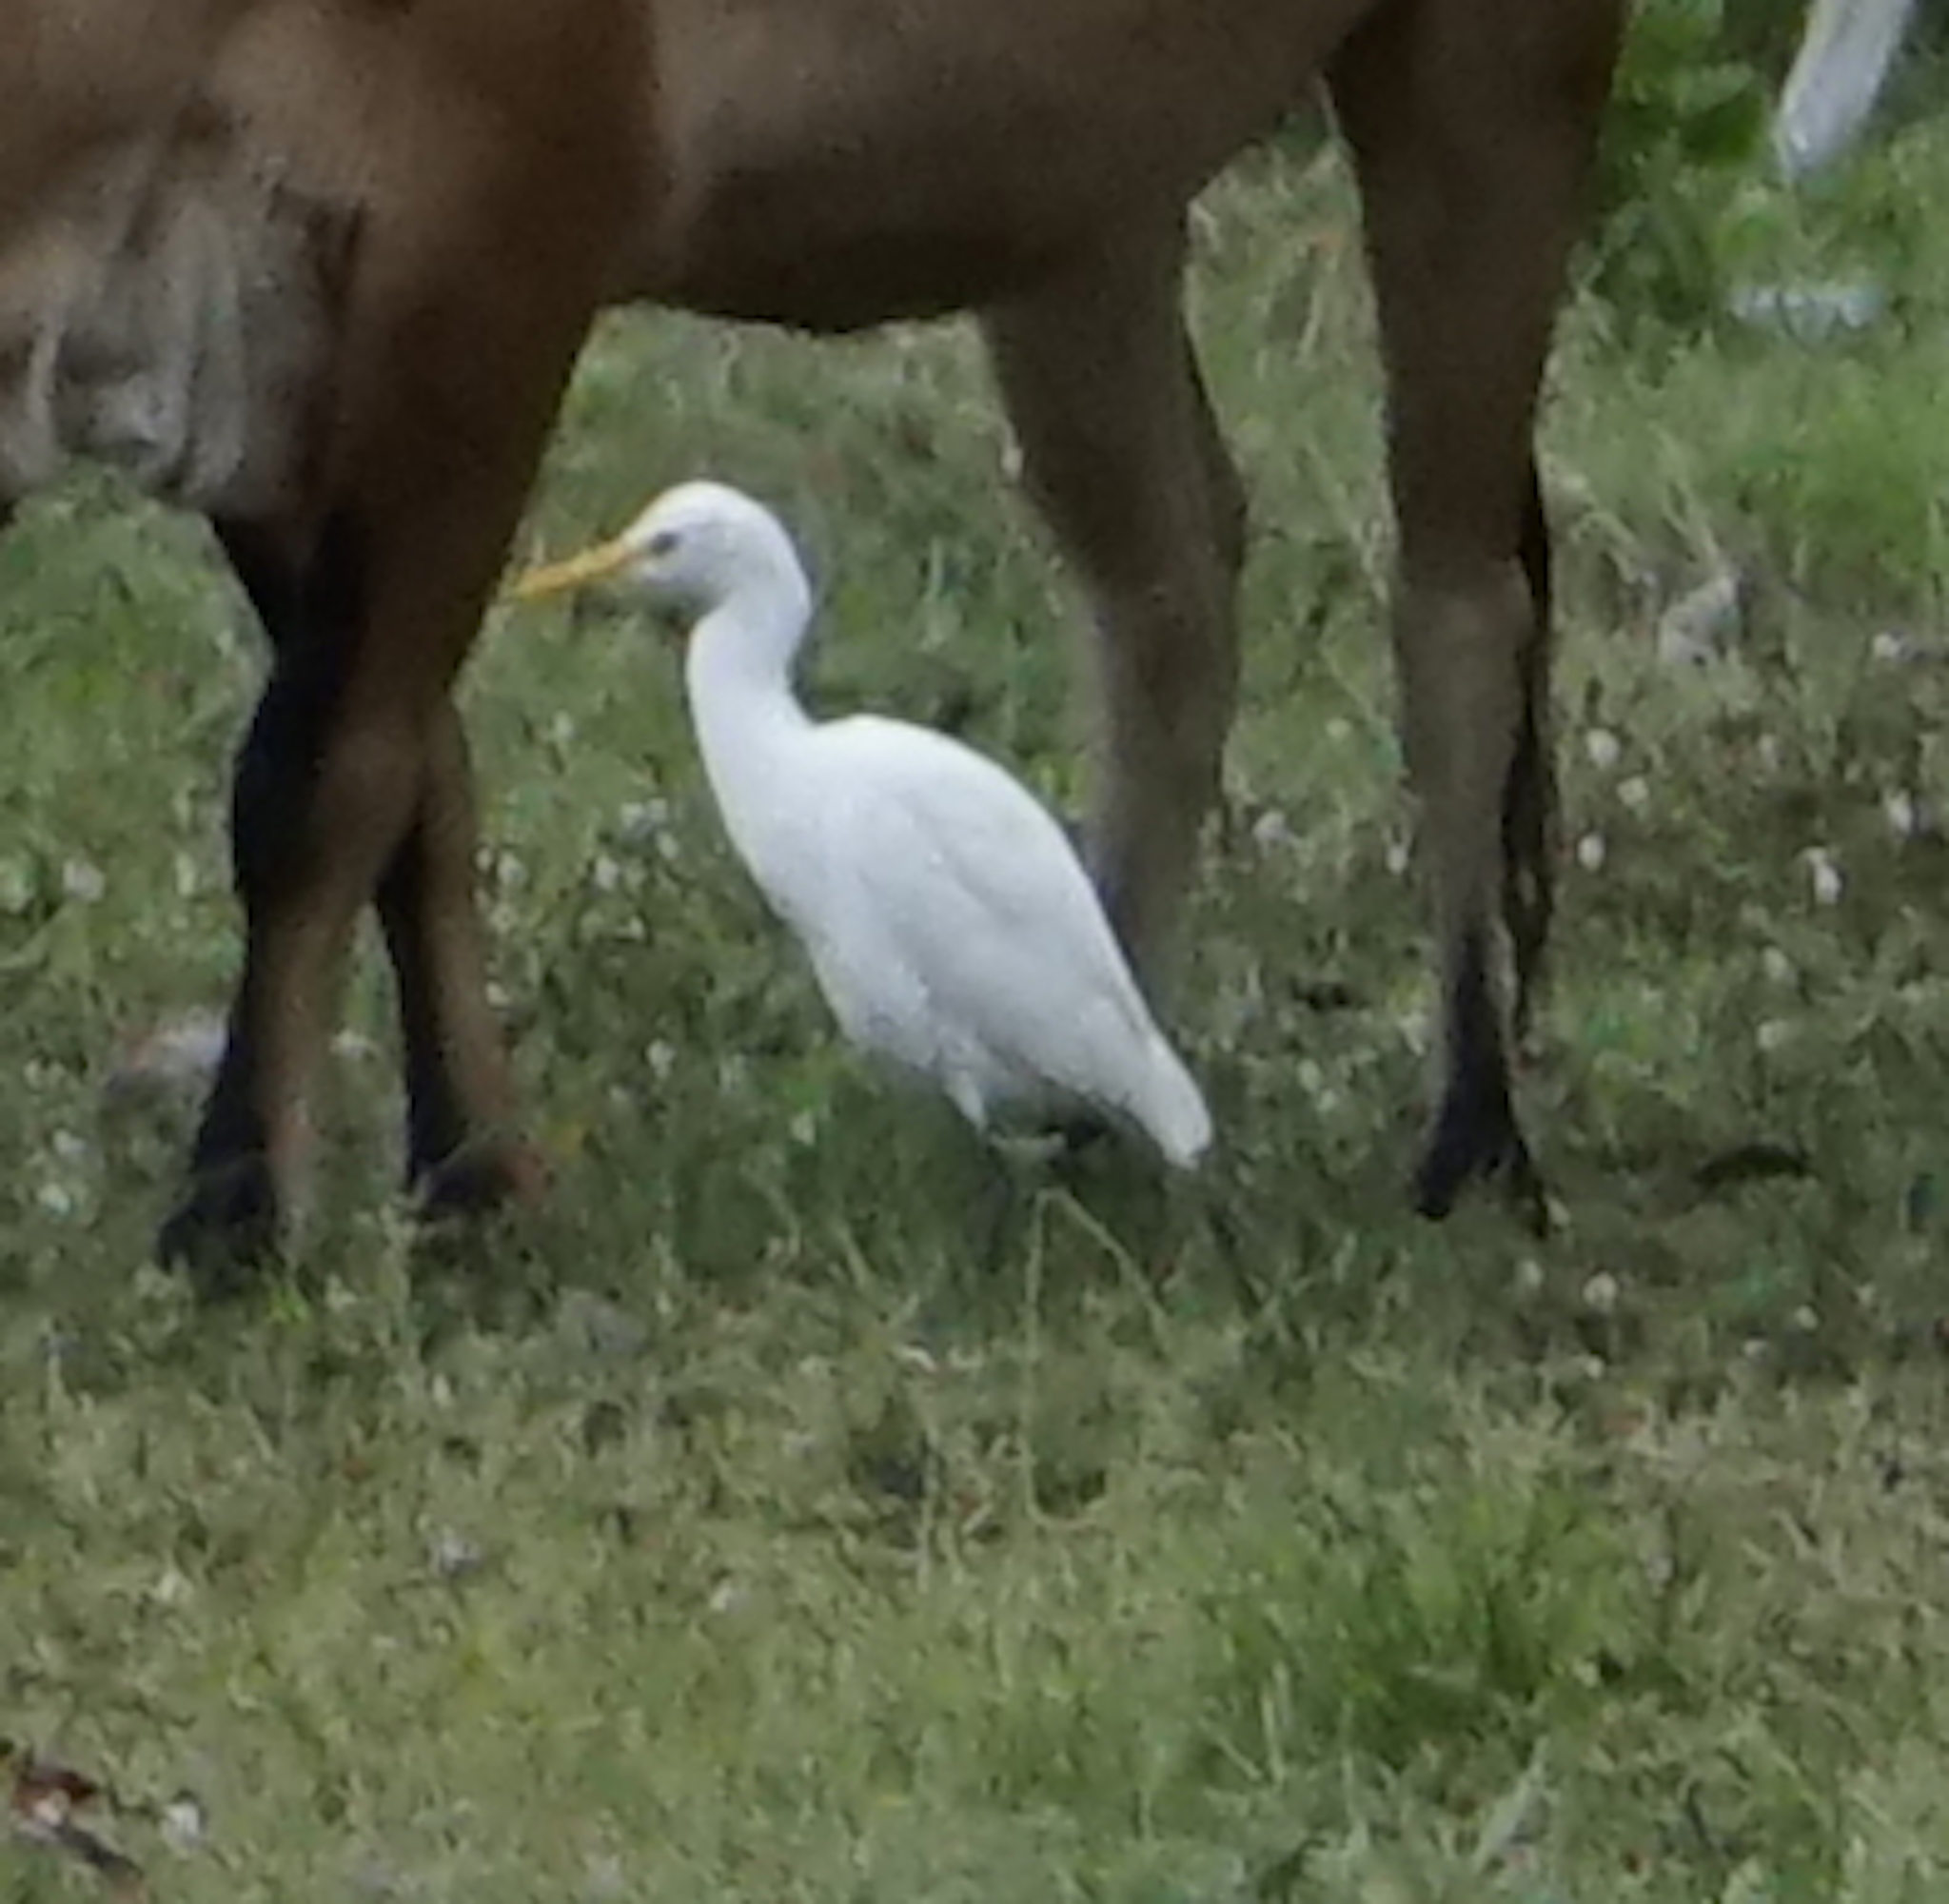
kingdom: Animalia
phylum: Chordata
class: Aves
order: Pelecaniformes
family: Ardeidae
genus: Bubulcus
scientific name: Bubulcus coromandus
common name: Eastern cattle egret
